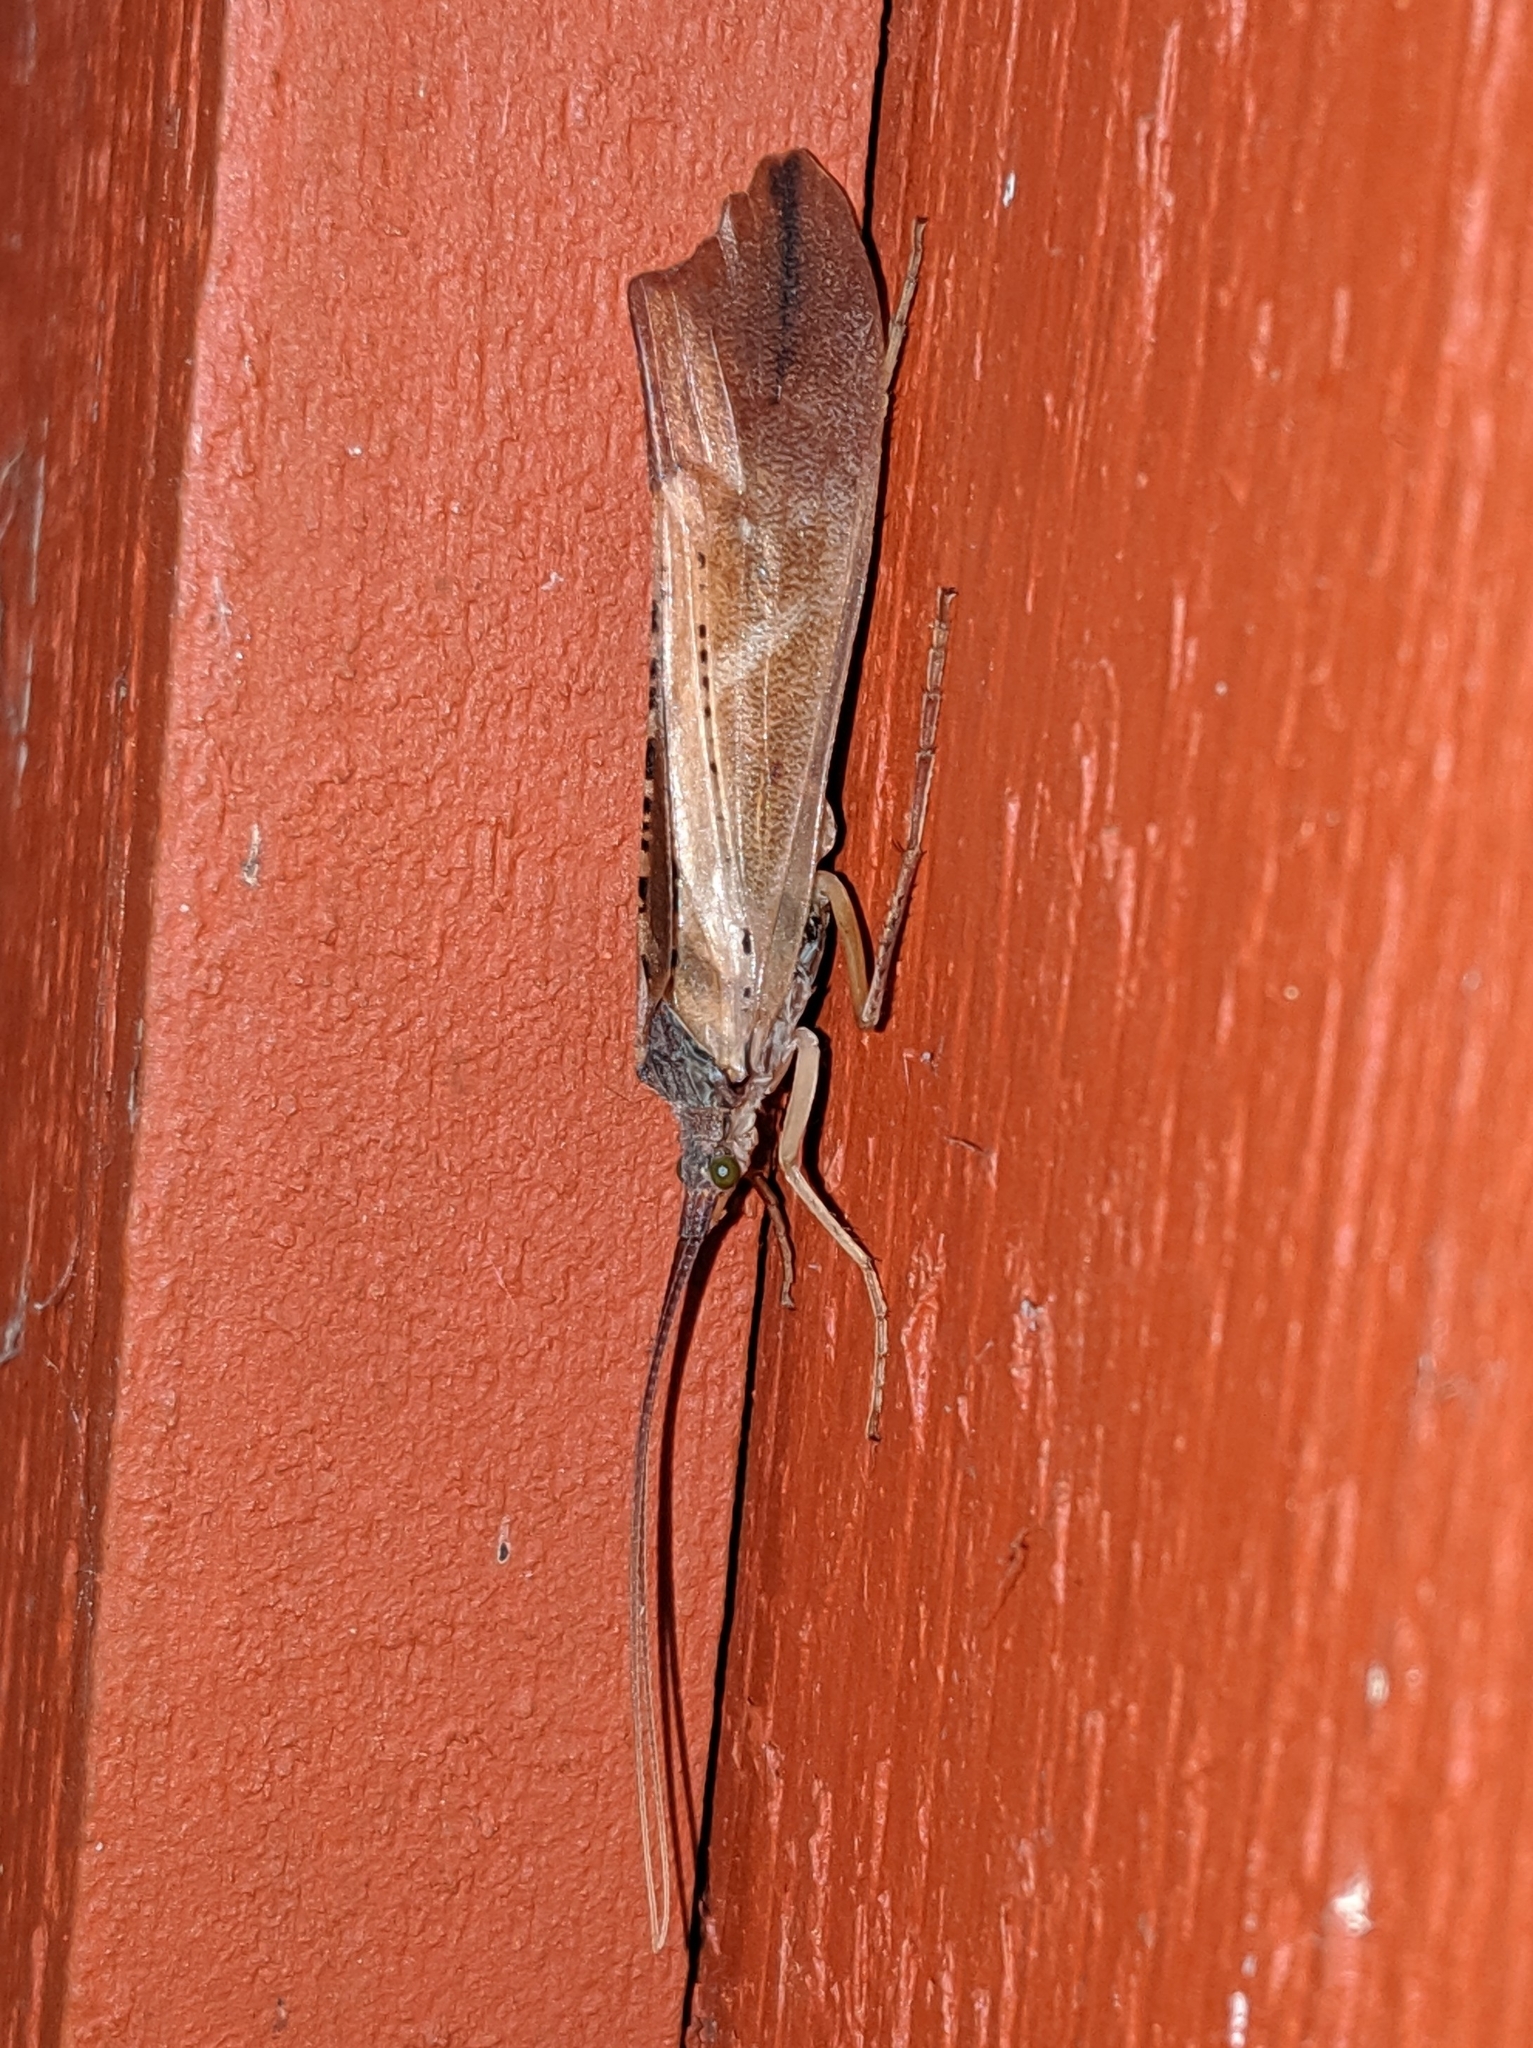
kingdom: Animalia
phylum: Arthropoda
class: Insecta
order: Trichoptera
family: Limnephilidae
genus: Nemotaulius
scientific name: Nemotaulius hostilis
